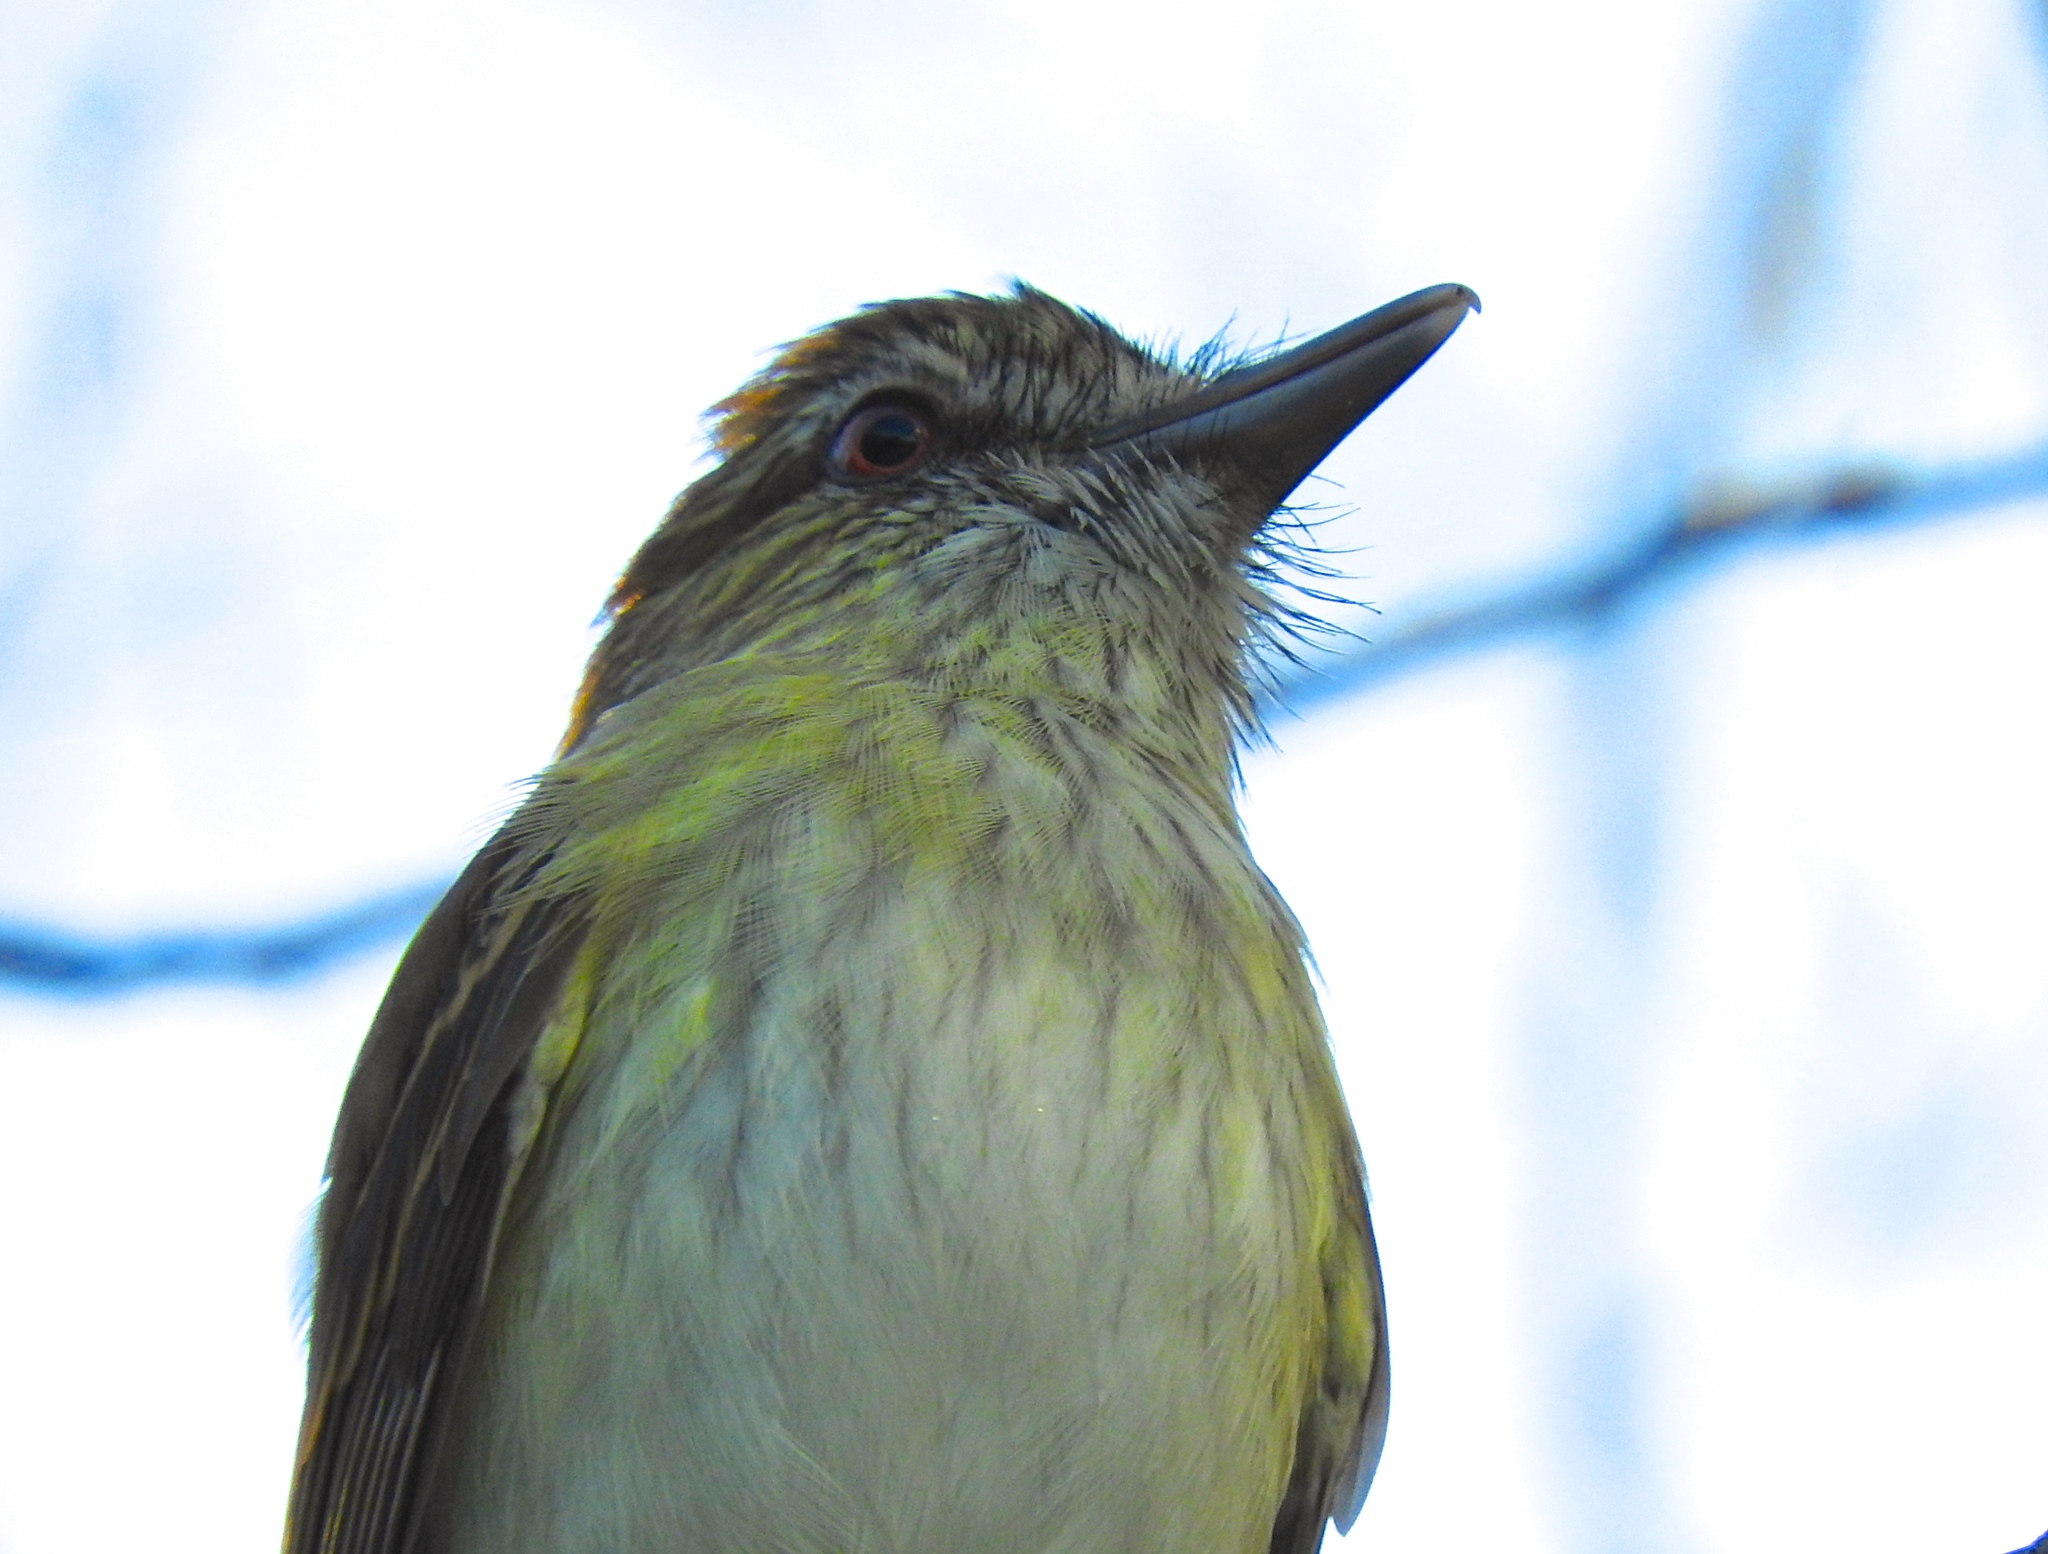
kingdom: Animalia
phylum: Chordata
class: Aves
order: Passeriformes
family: Tyrannidae
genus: Attila
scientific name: Attila spadiceus
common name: Bright-rumped attila
